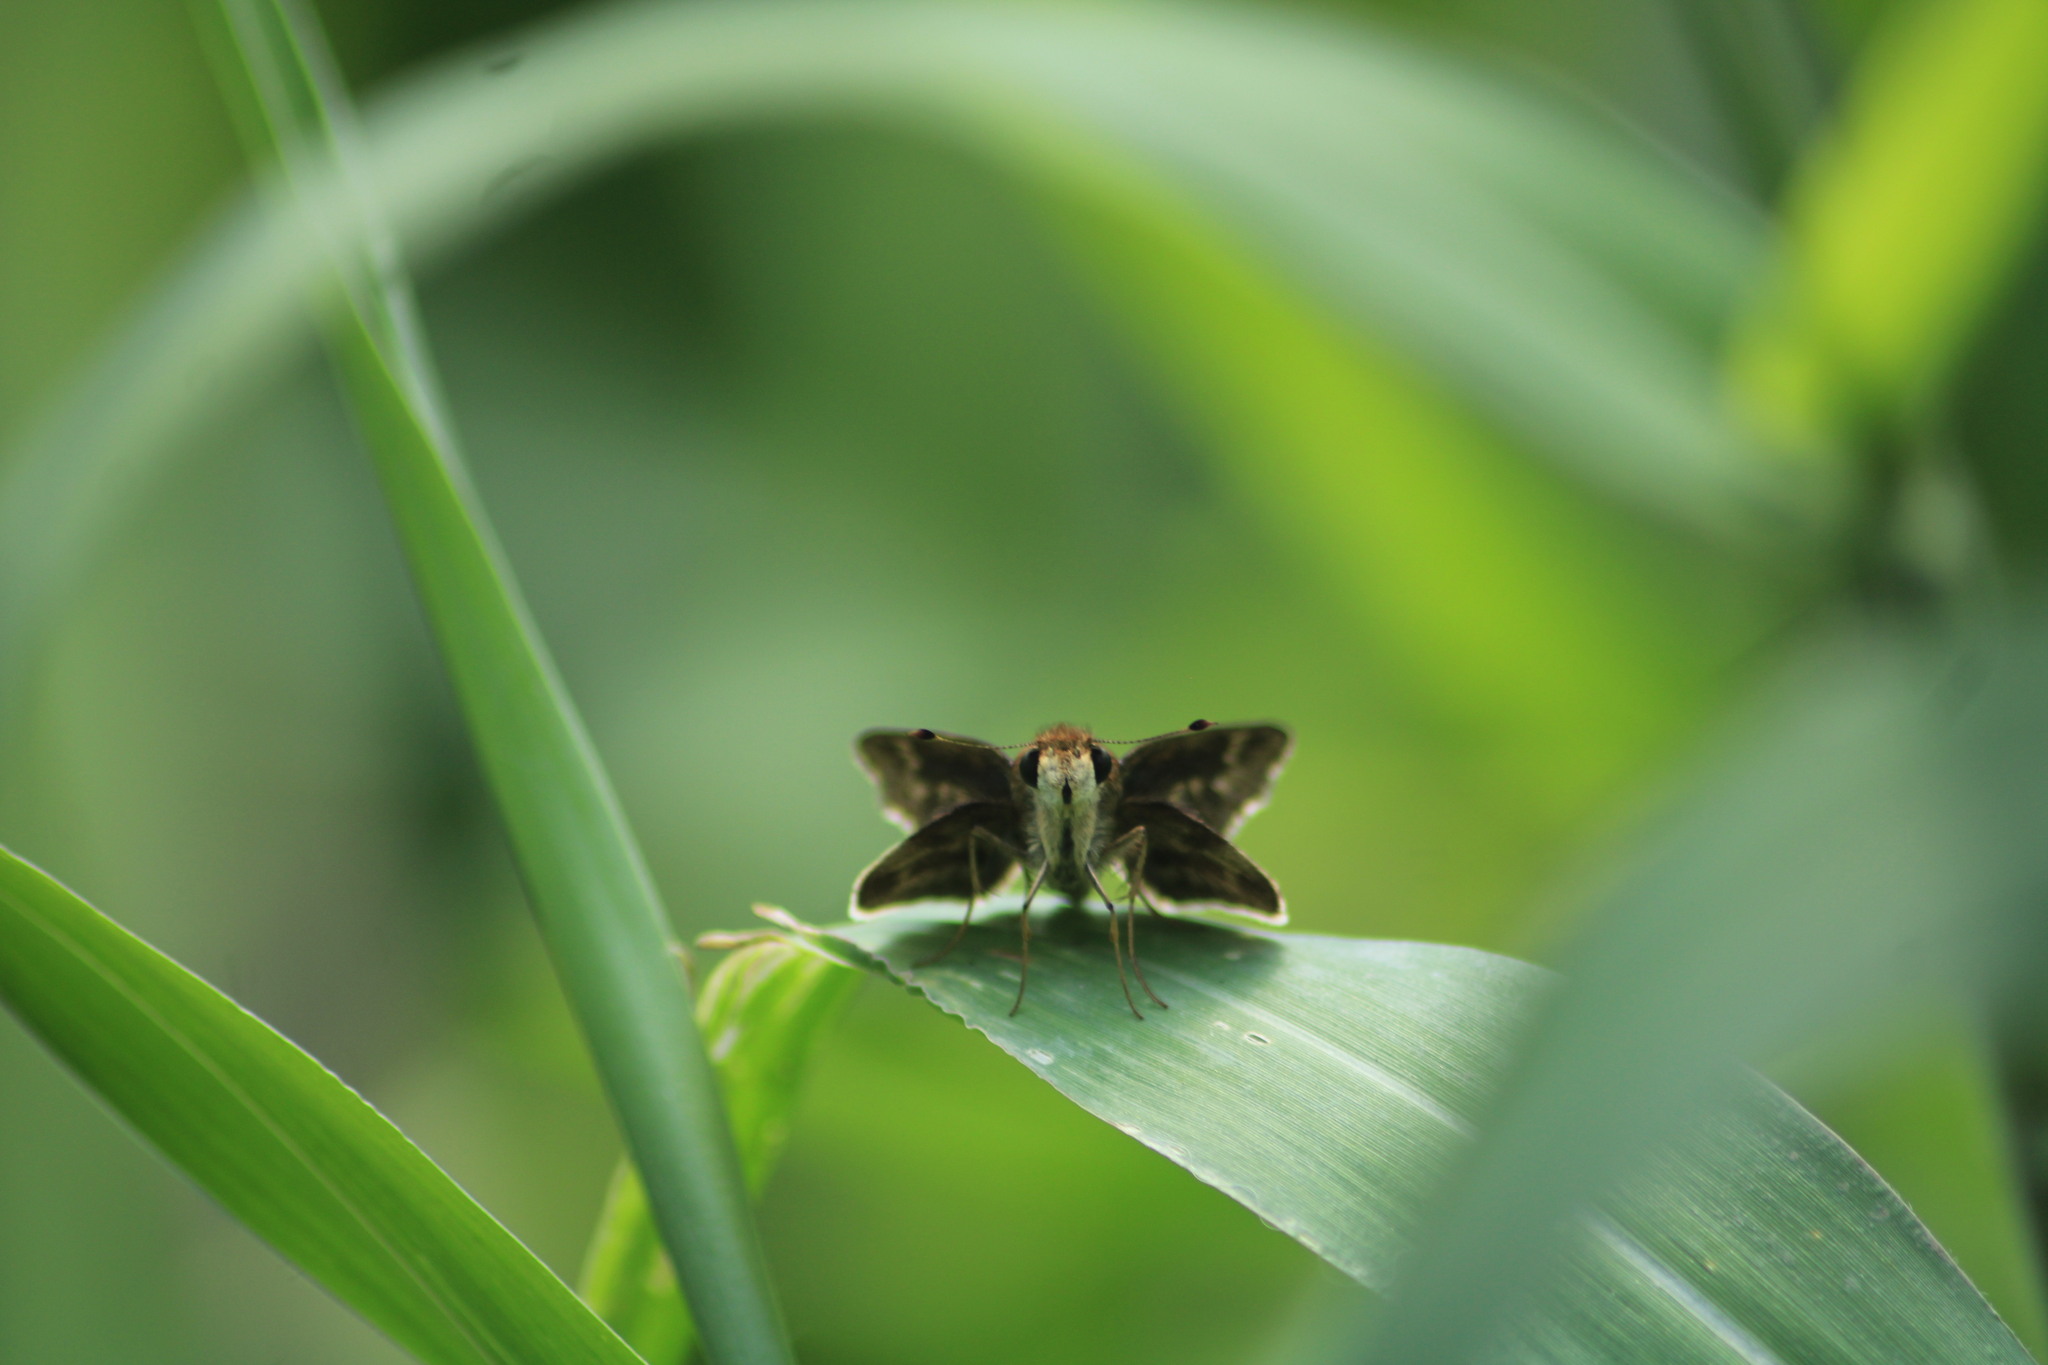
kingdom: Animalia
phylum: Arthropoda
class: Insecta
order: Lepidoptera
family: Hesperiidae
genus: Pompeius
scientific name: Pompeius pompeius
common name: Pompeius skipper
